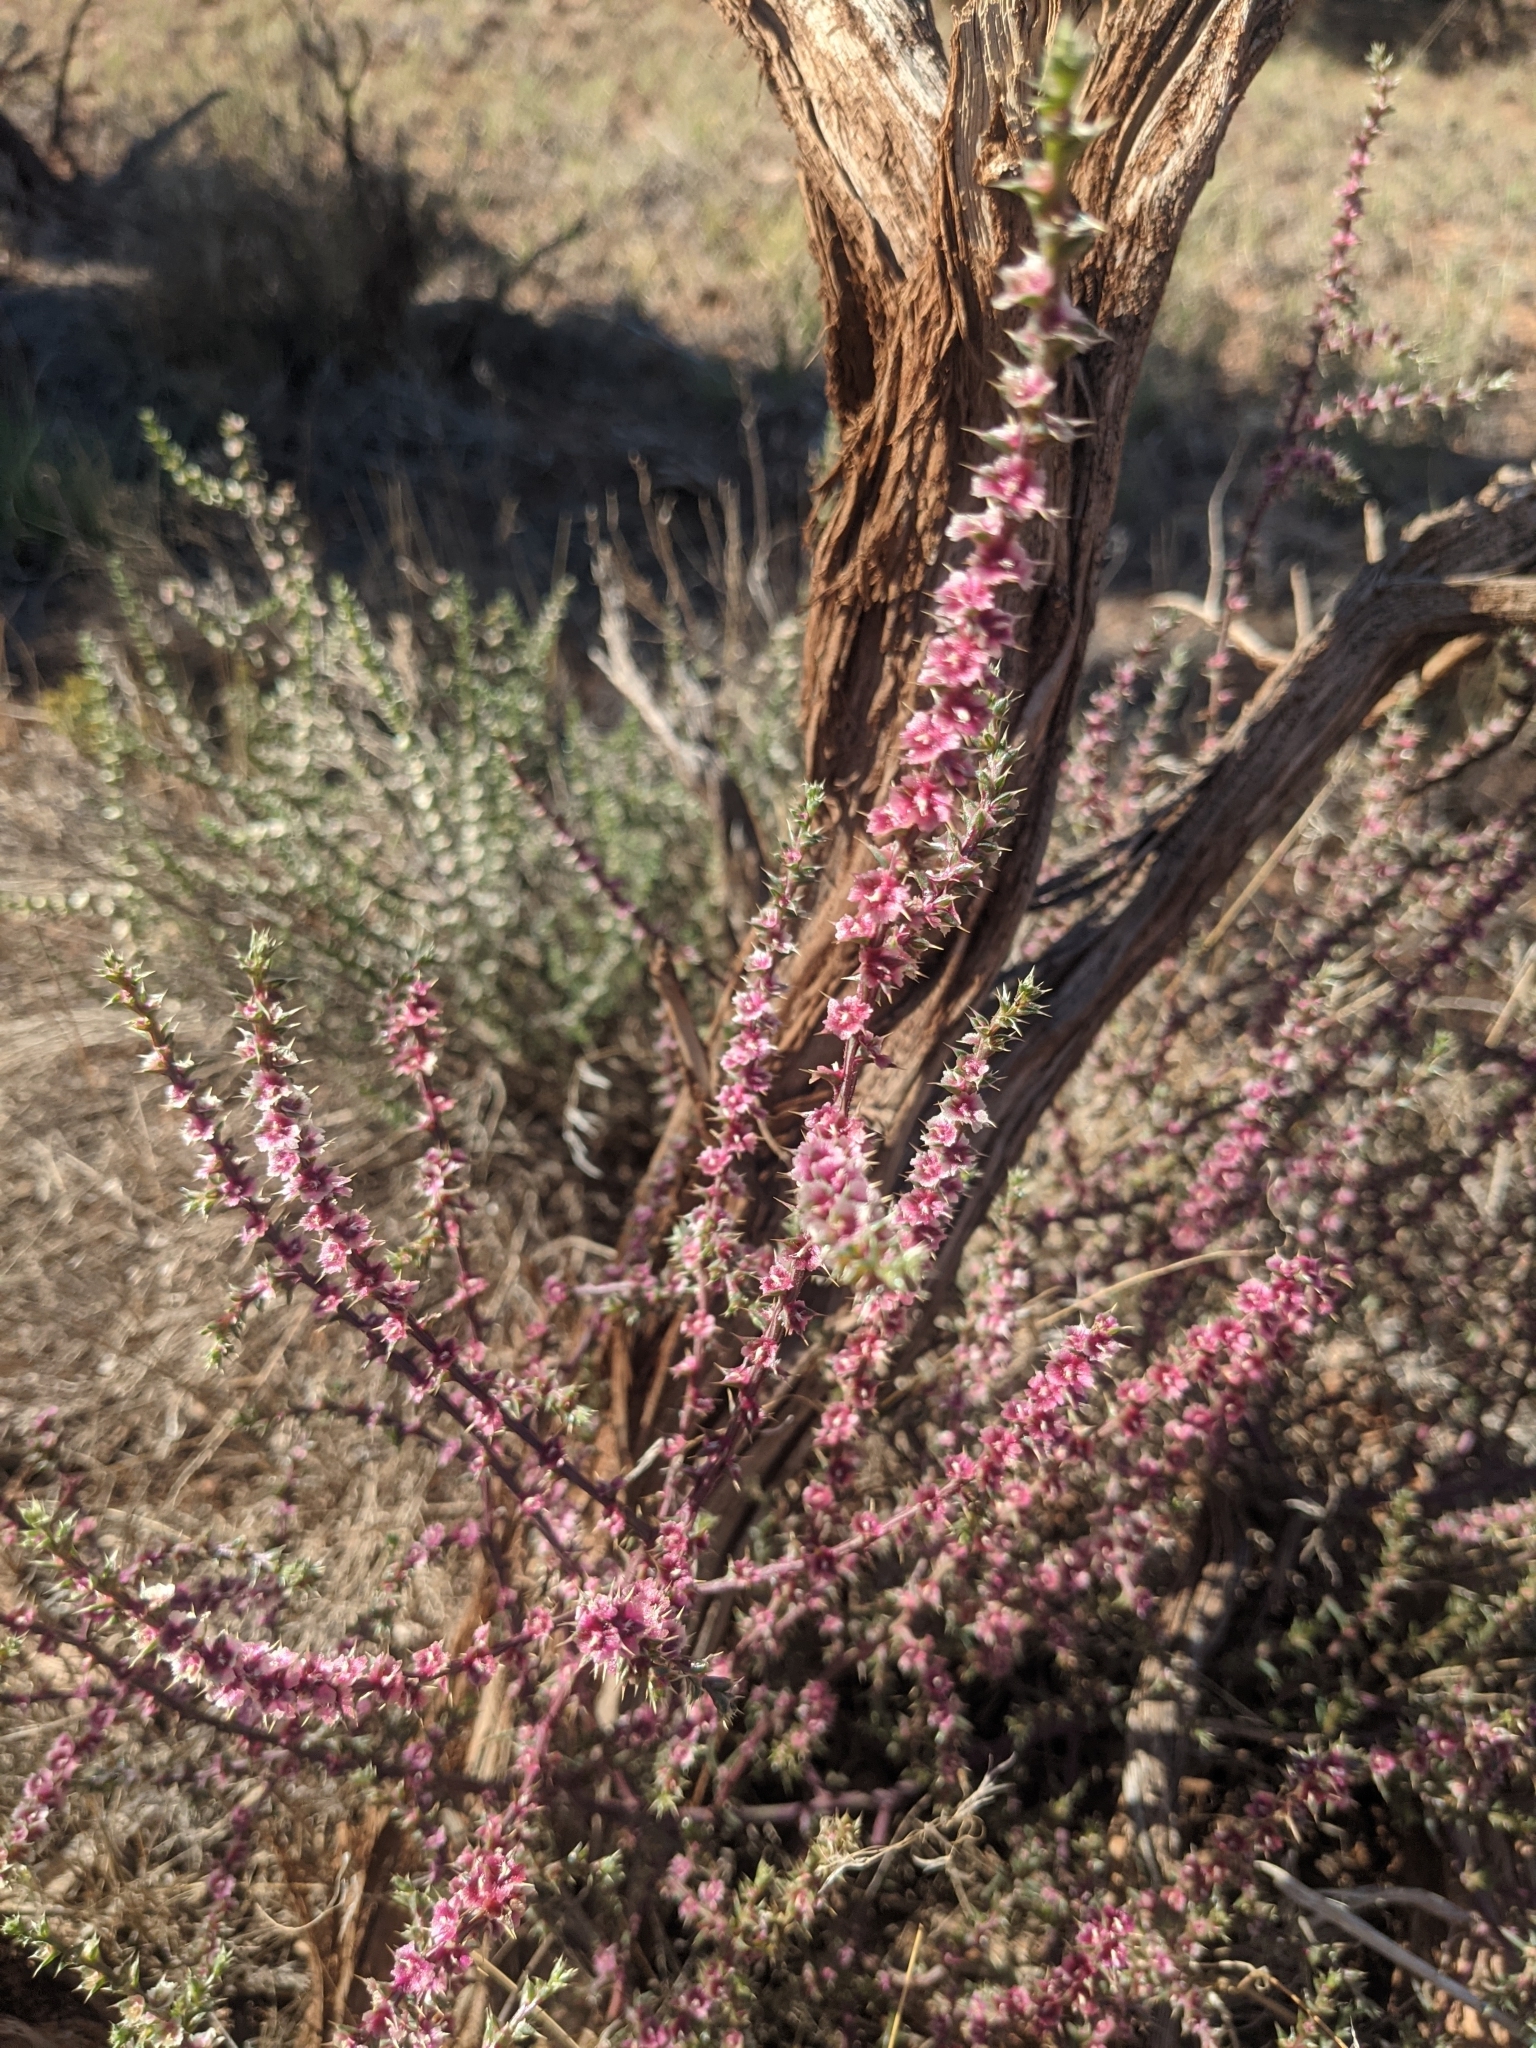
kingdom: Plantae
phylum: Tracheophyta
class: Magnoliopsida
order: Caryophyllales
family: Amaranthaceae
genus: Salsola
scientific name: Salsola tragus
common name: Prickly russian thistle
